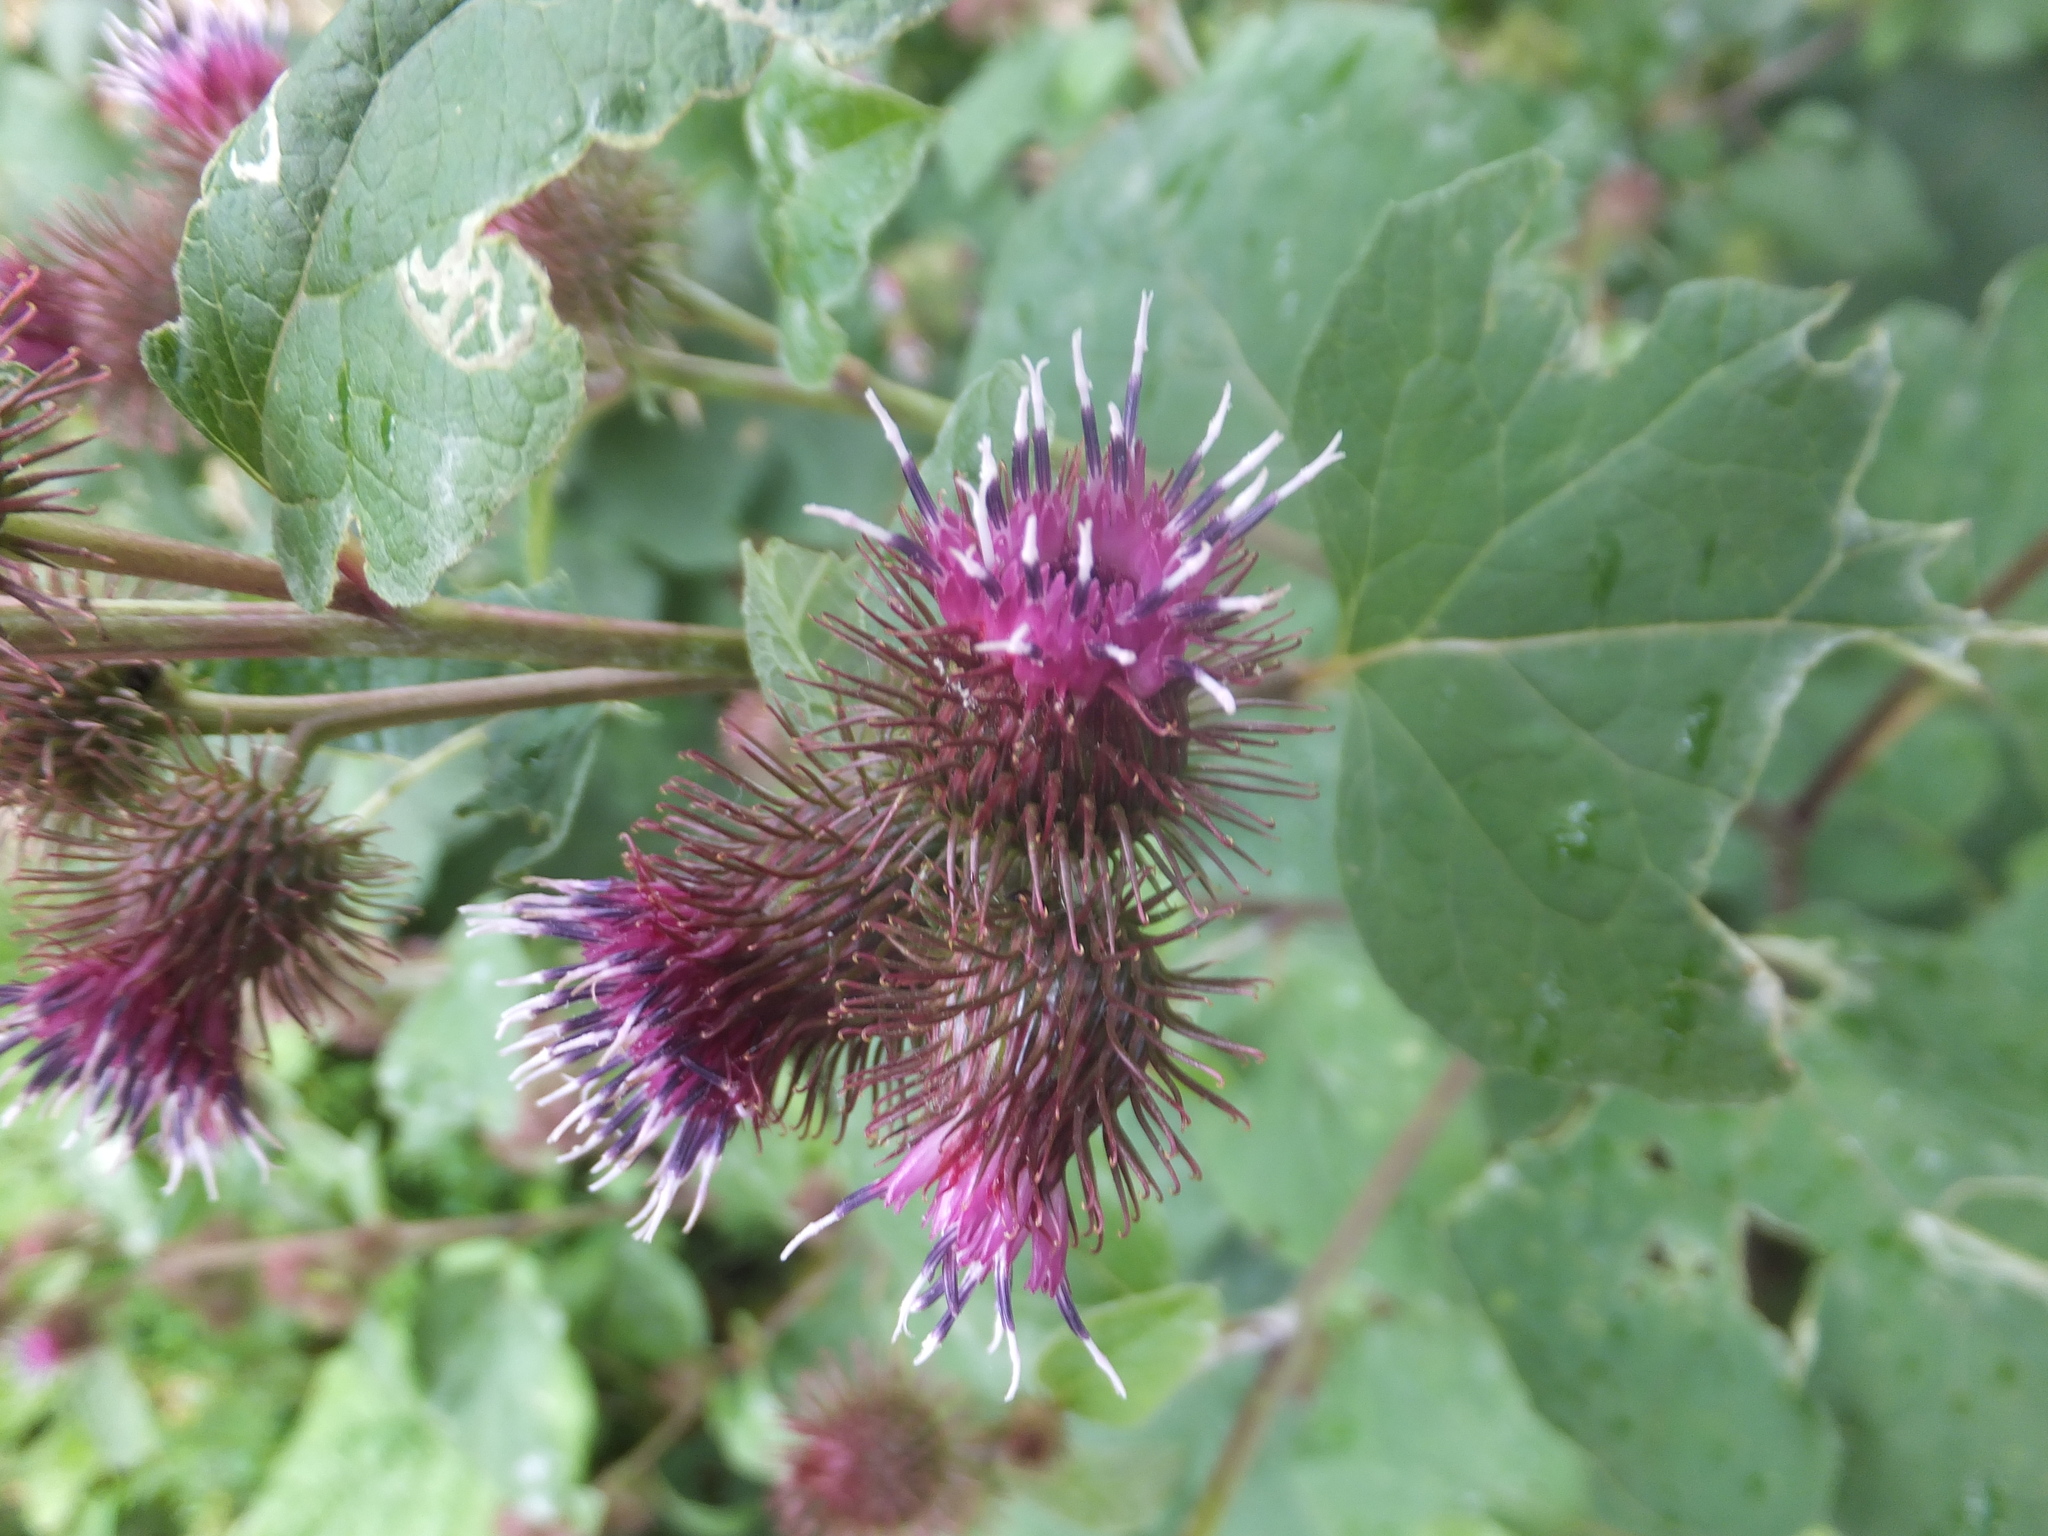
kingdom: Plantae
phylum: Tracheophyta
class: Magnoliopsida
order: Asterales
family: Asteraceae
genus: Arctium
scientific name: Arctium minus
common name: Lesser burdock
